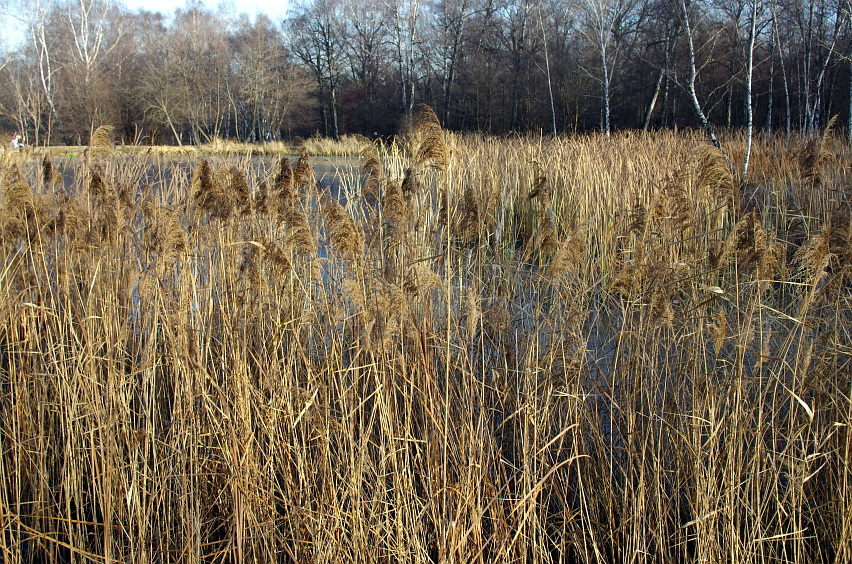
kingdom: Plantae
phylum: Tracheophyta
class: Liliopsida
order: Poales
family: Poaceae
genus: Phragmites
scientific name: Phragmites australis
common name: Common reed
